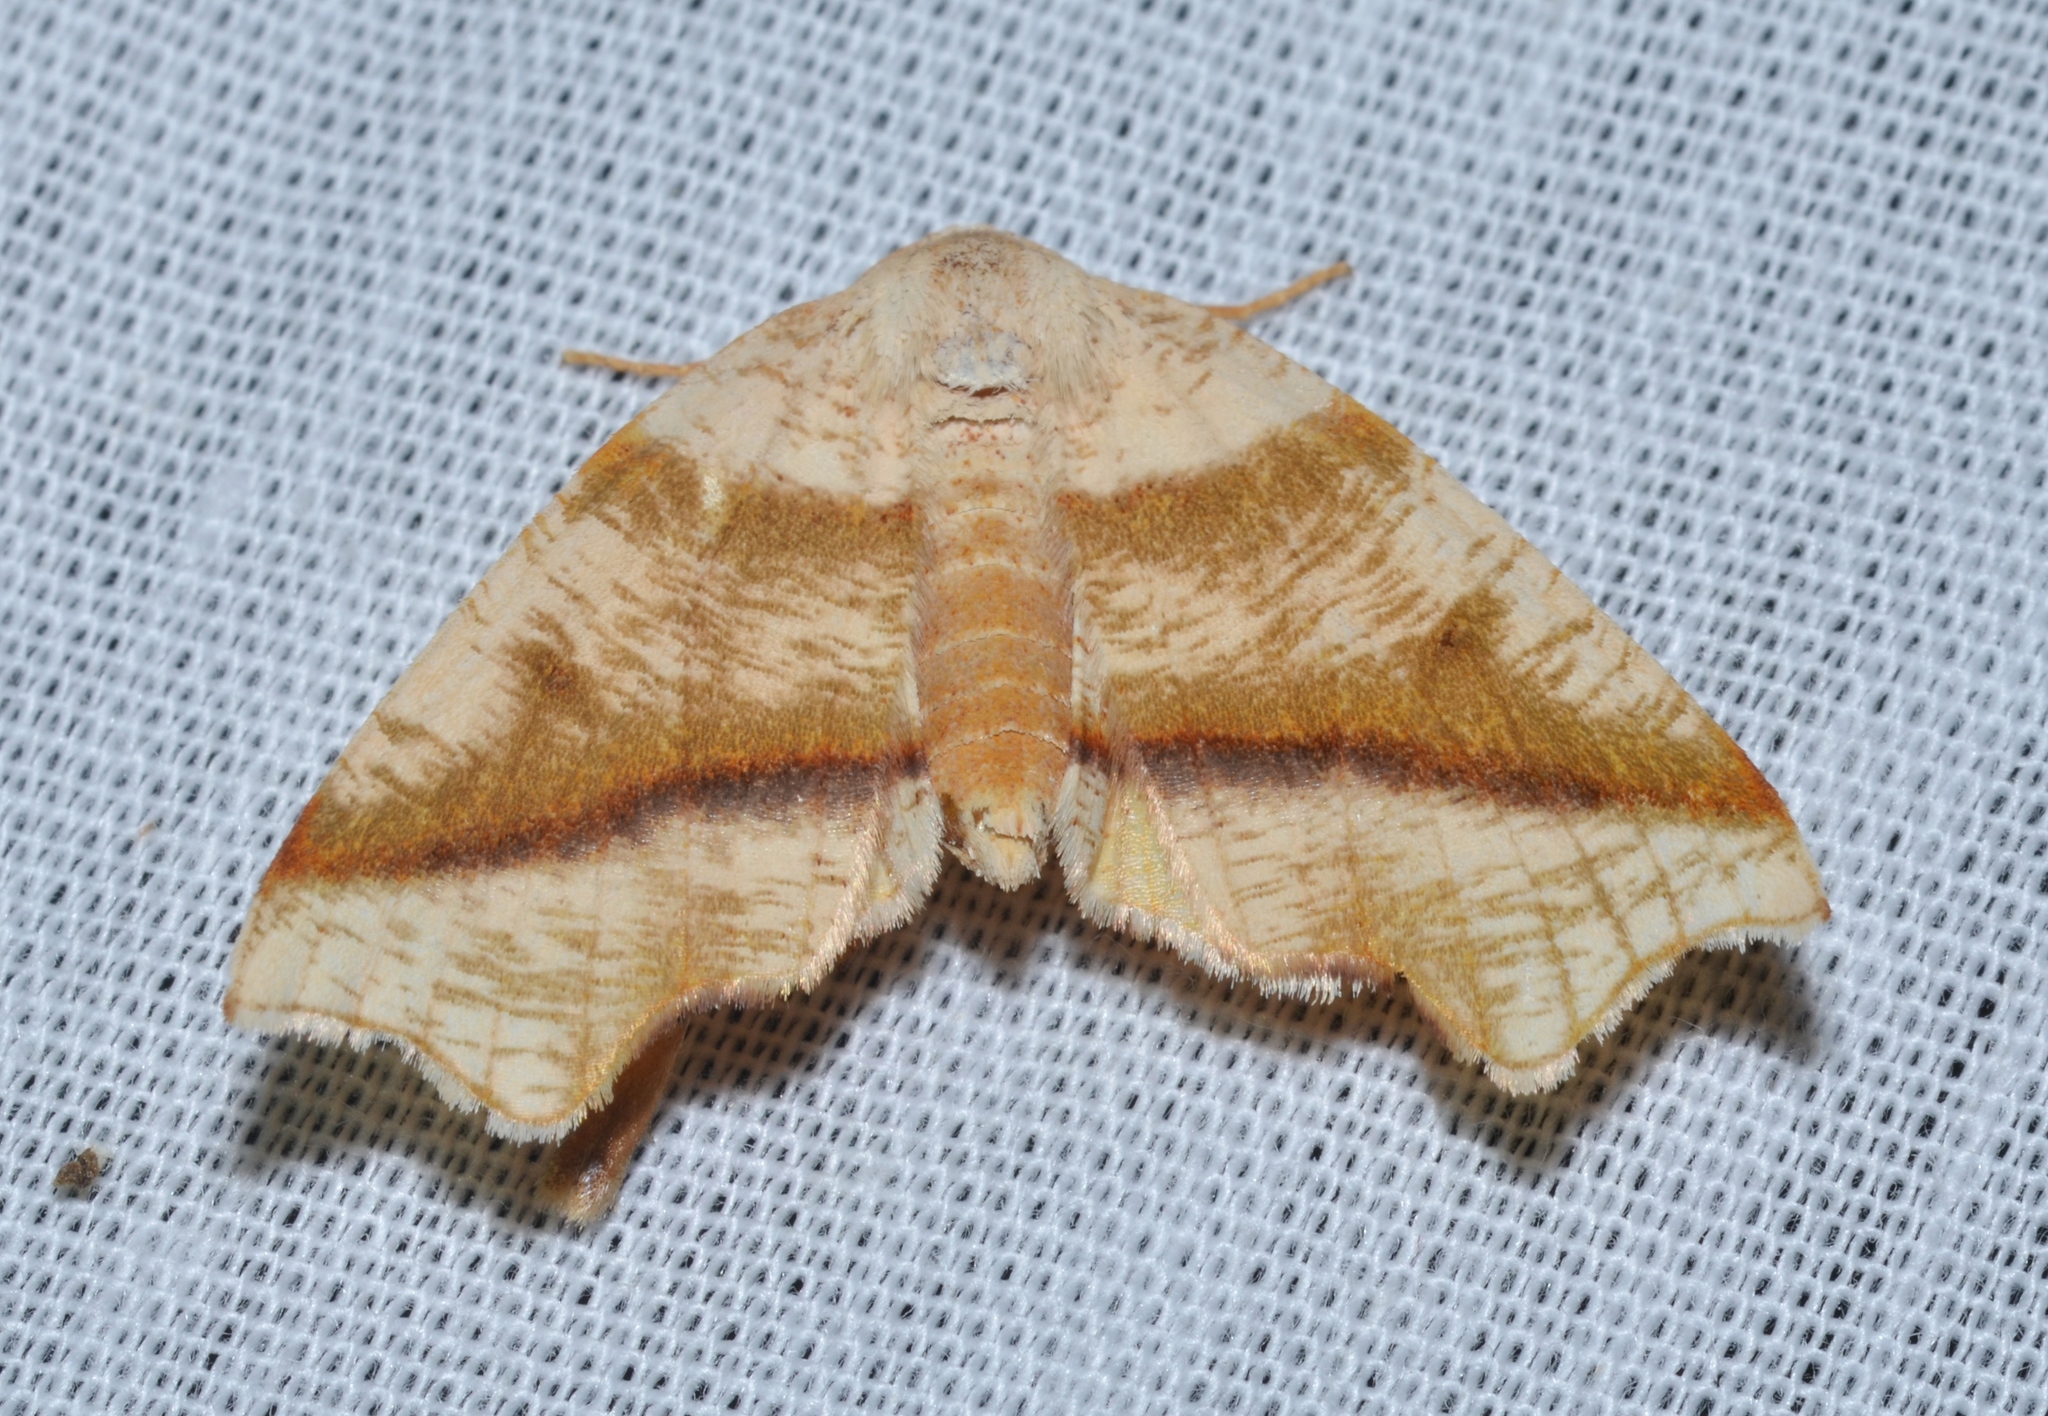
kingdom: Animalia
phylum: Arthropoda
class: Insecta
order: Lepidoptera
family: Geometridae
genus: Plagodis
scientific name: Plagodis alcoolaria
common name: Hollow-spotted plagodis
